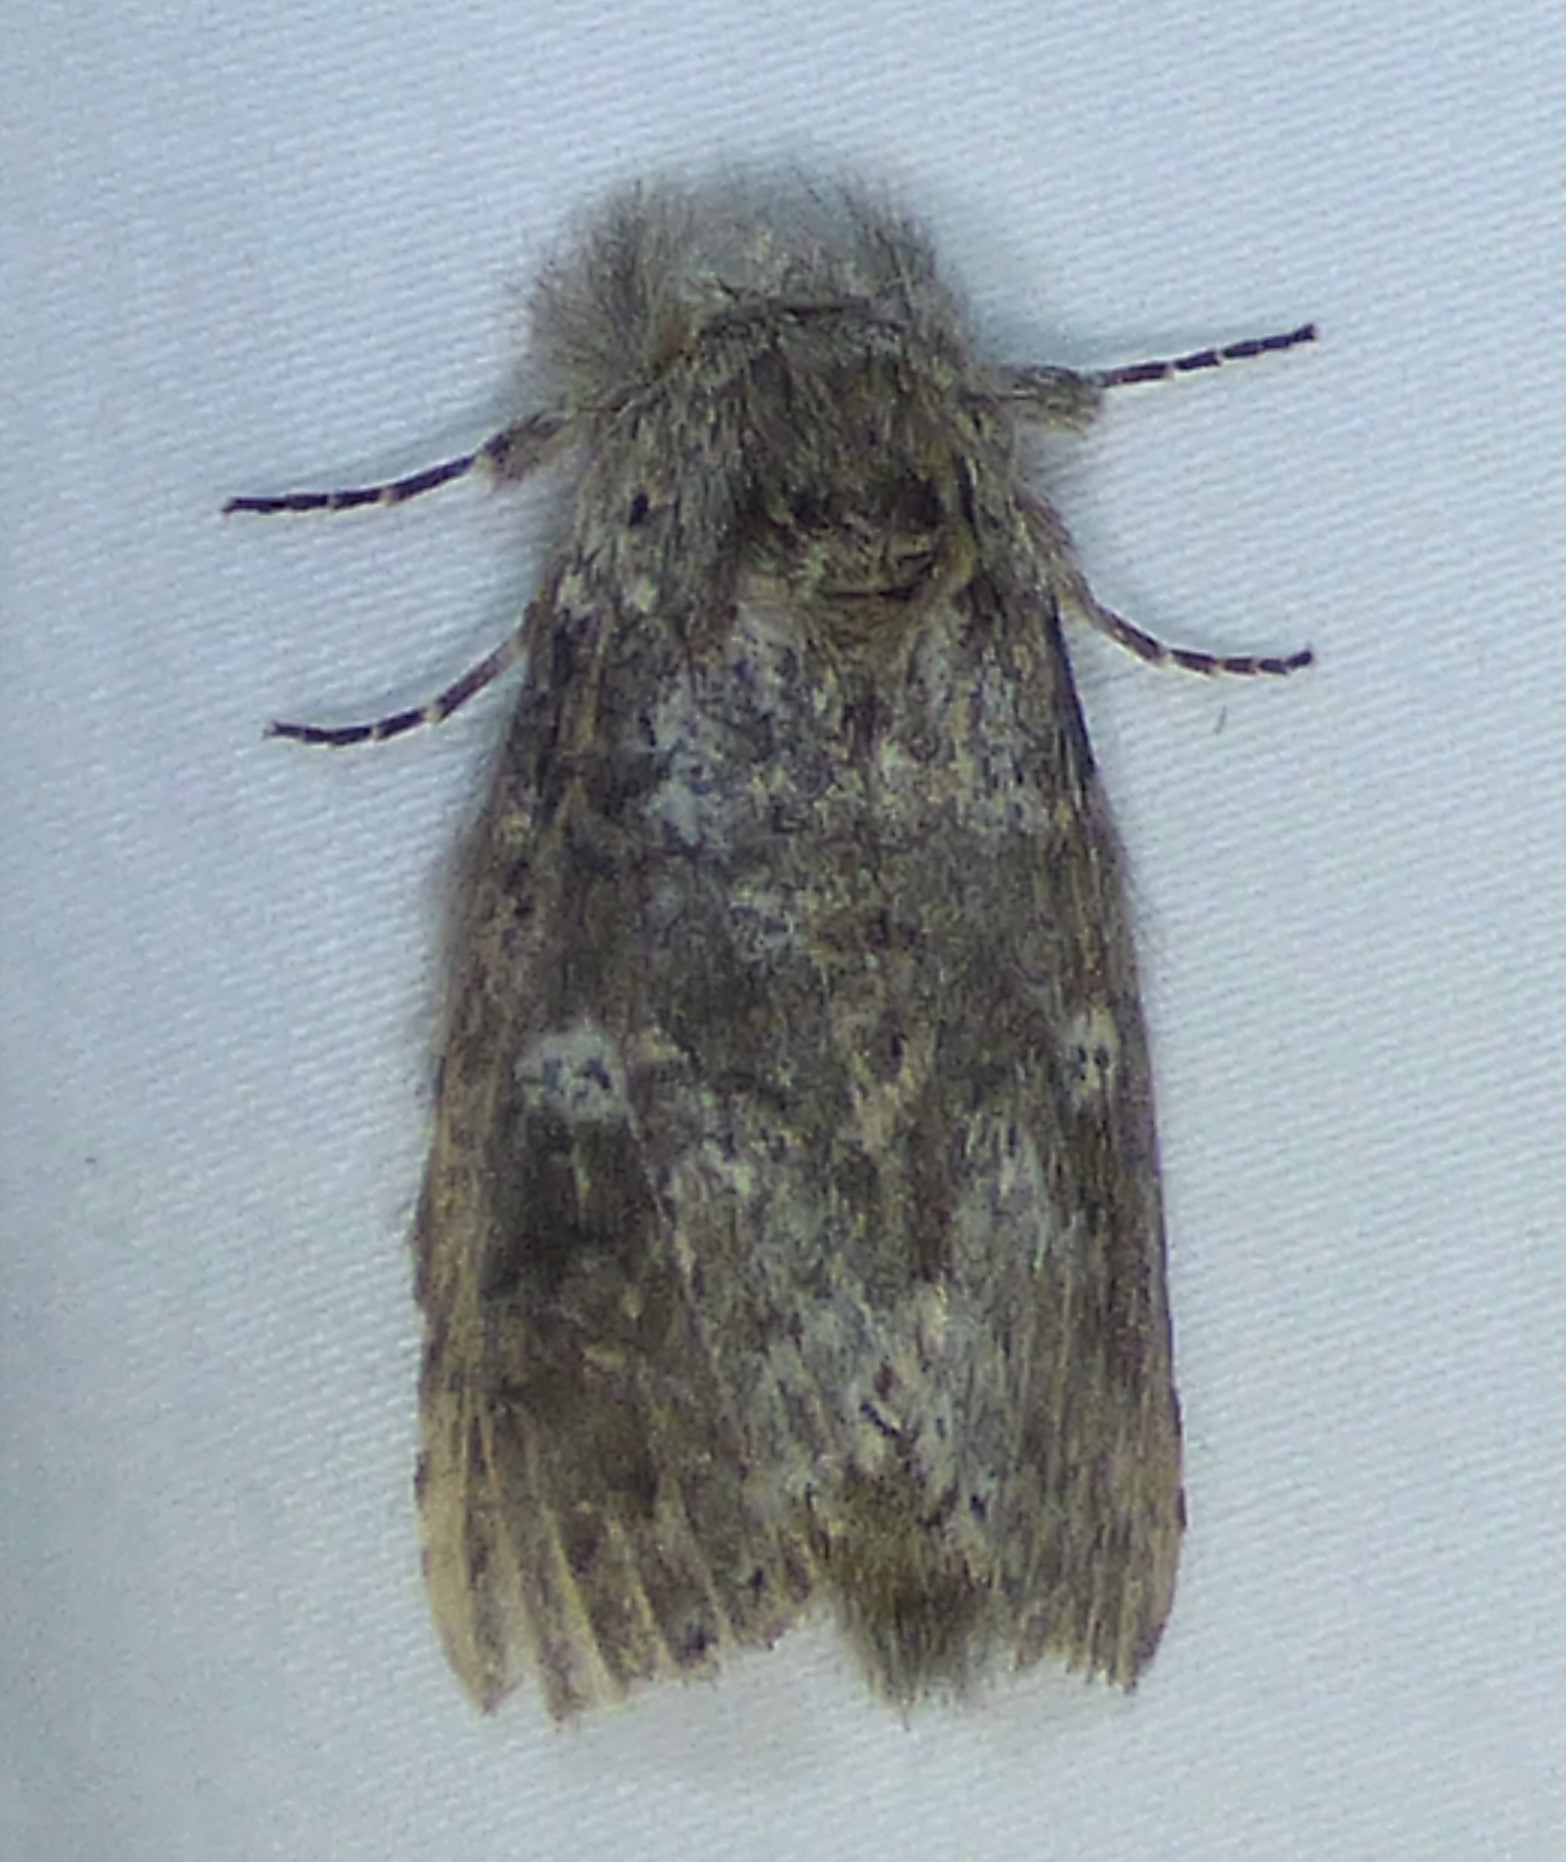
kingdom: Animalia
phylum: Arthropoda
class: Insecta
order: Lepidoptera
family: Notodontidae
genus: Lochmaeus
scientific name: Lochmaeus manteo
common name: Variable oakleaf caterpillar moth
